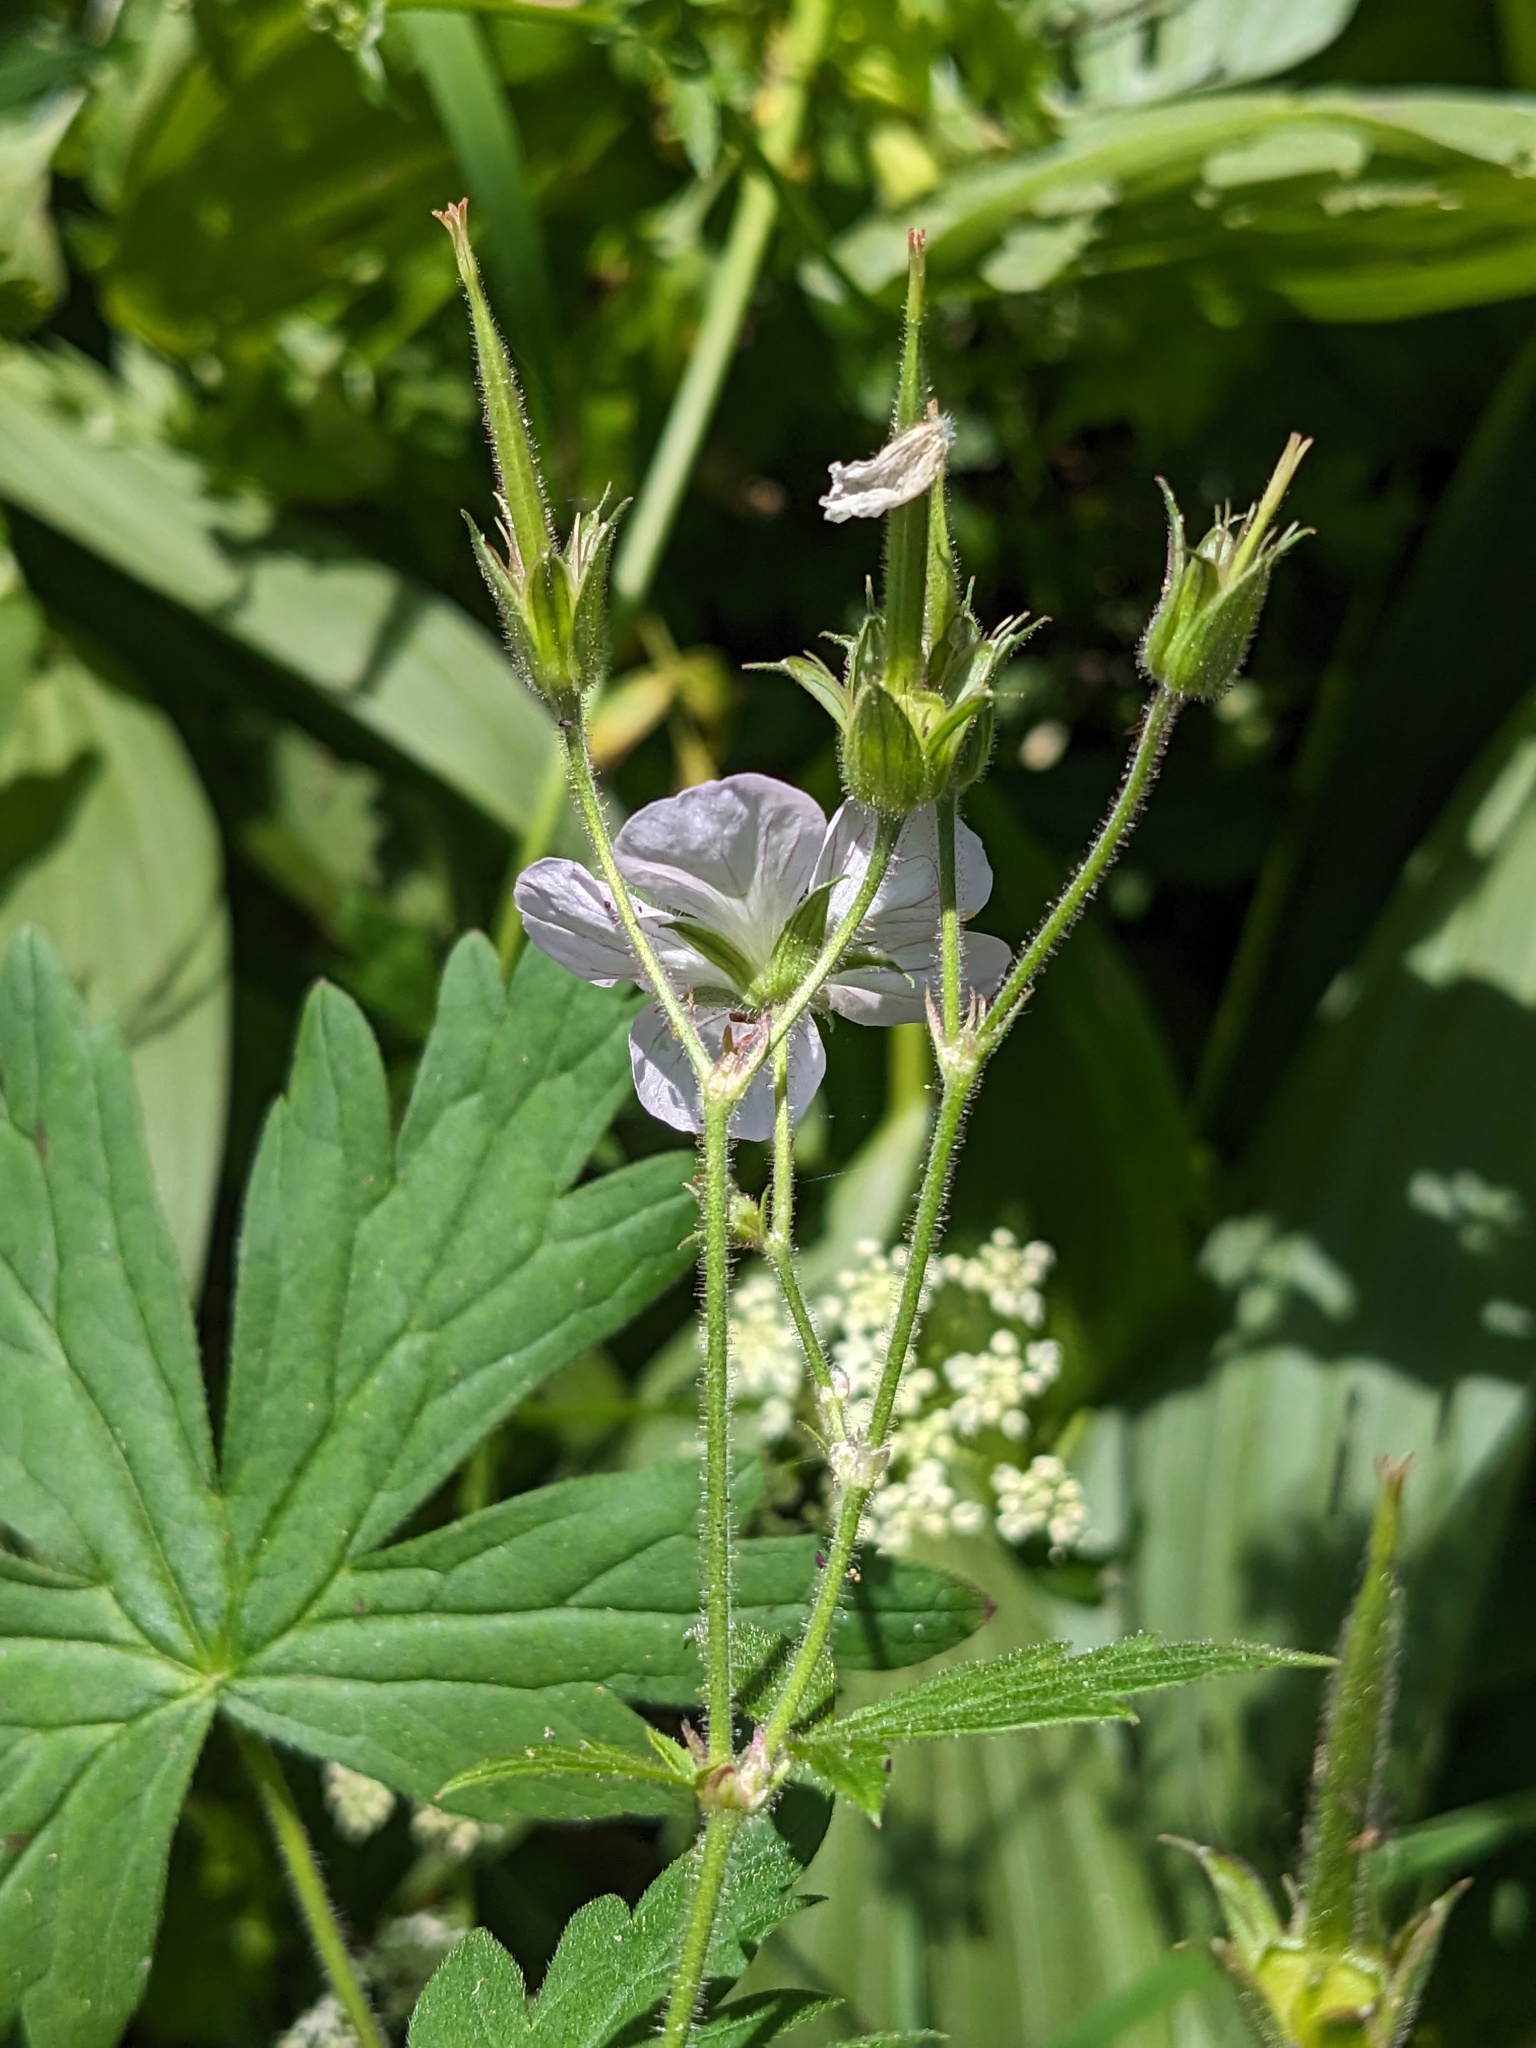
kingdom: Plantae
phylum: Tracheophyta
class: Magnoliopsida
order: Geraniales
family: Geraniaceae
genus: Geranium
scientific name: Geranium richardsonii
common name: Richardson's crane's-bill
